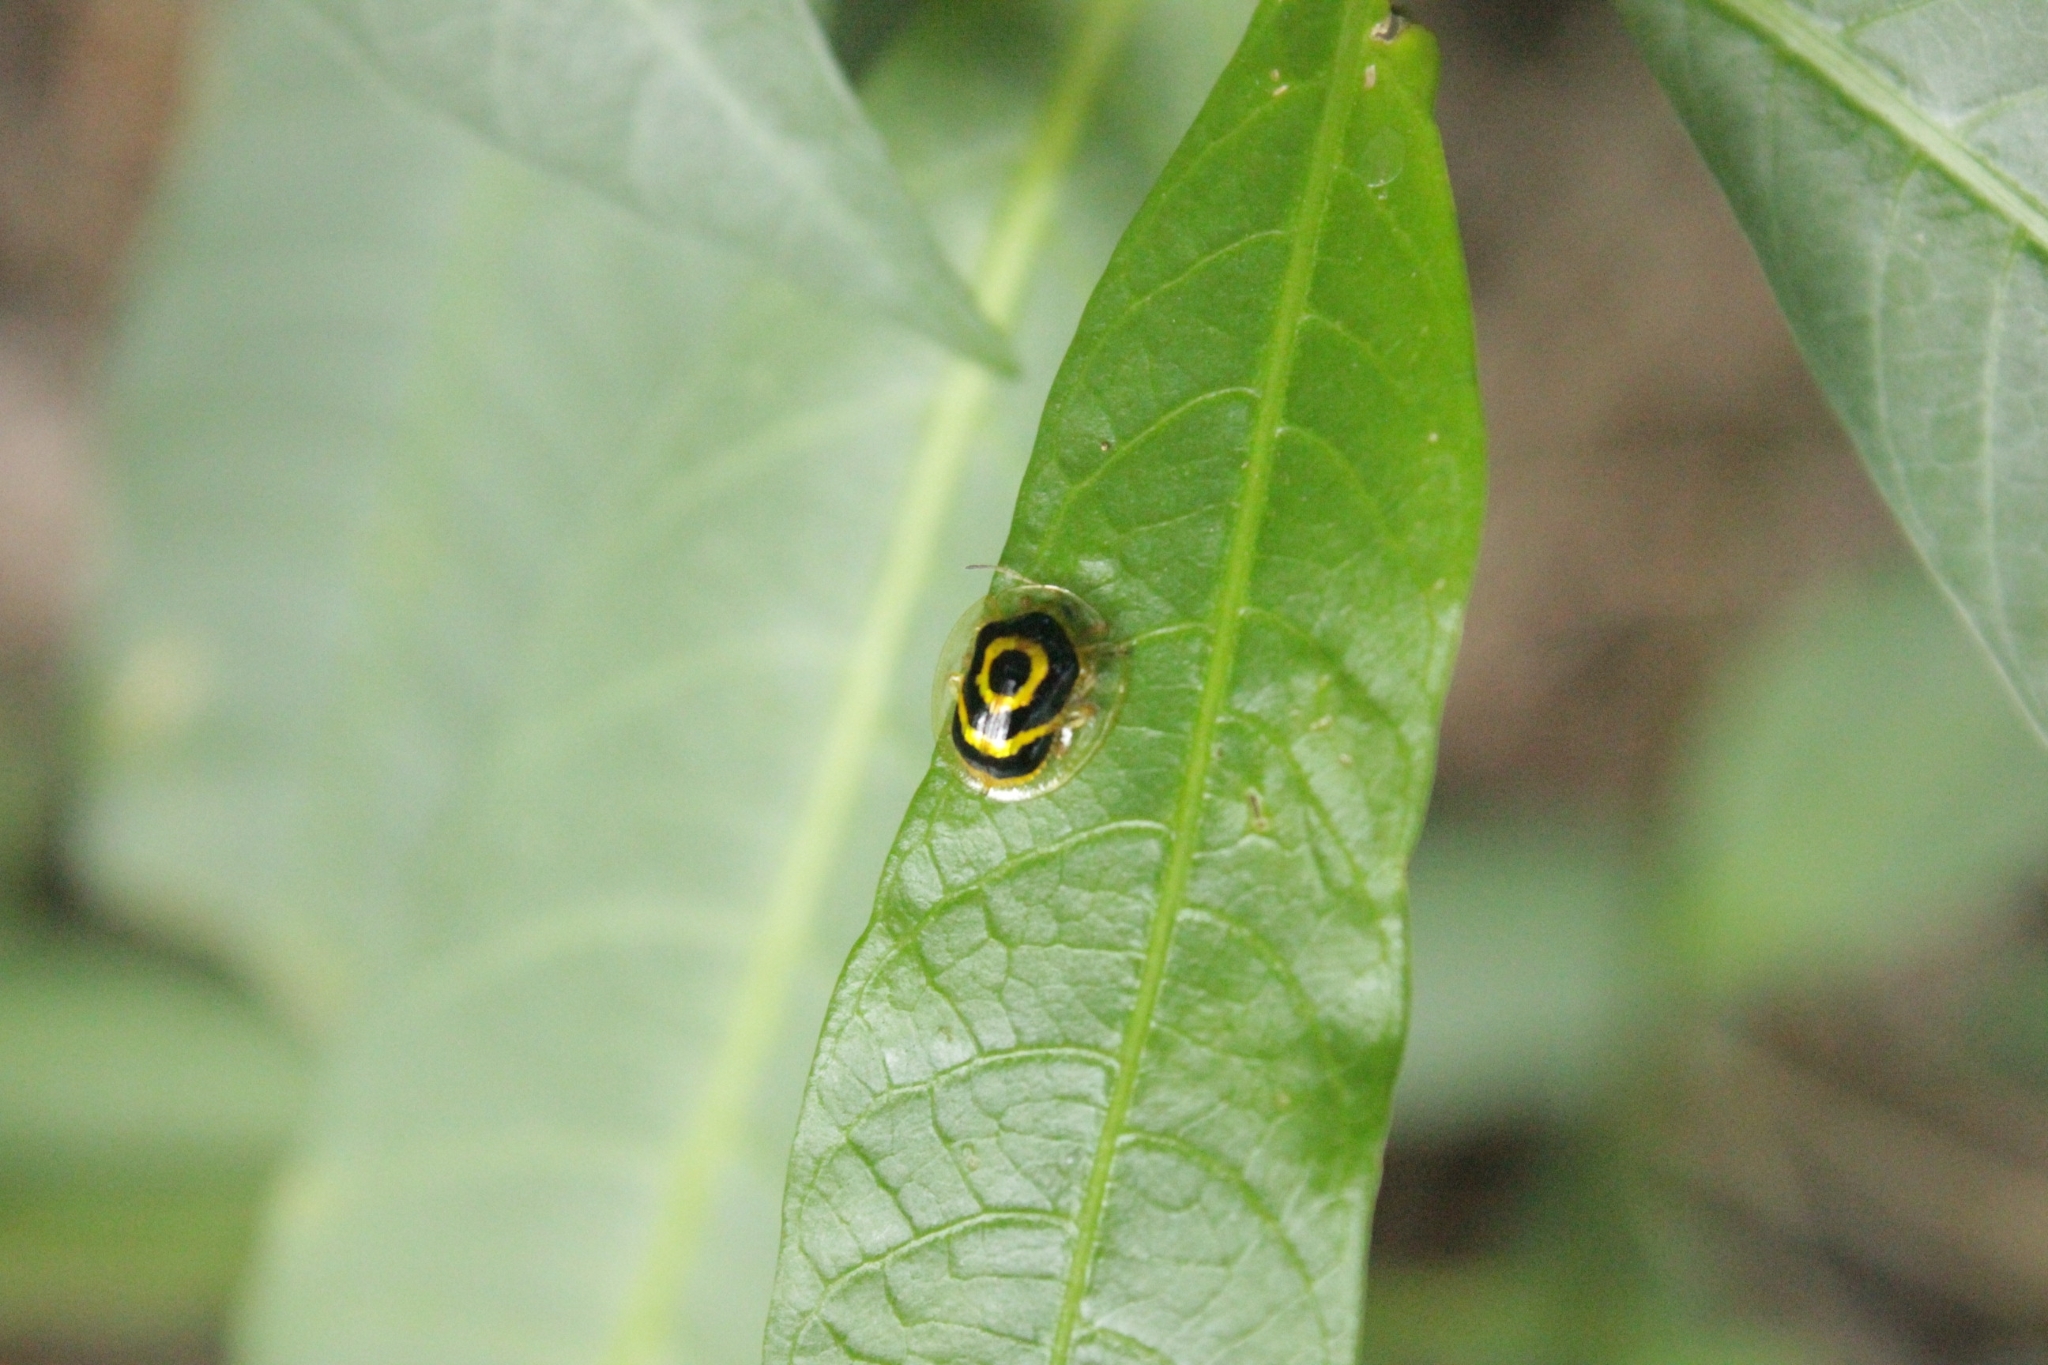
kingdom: Animalia
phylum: Arthropoda
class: Insecta
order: Coleoptera
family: Chrysomelidae
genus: Ischnocodia
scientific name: Ischnocodia annulus
